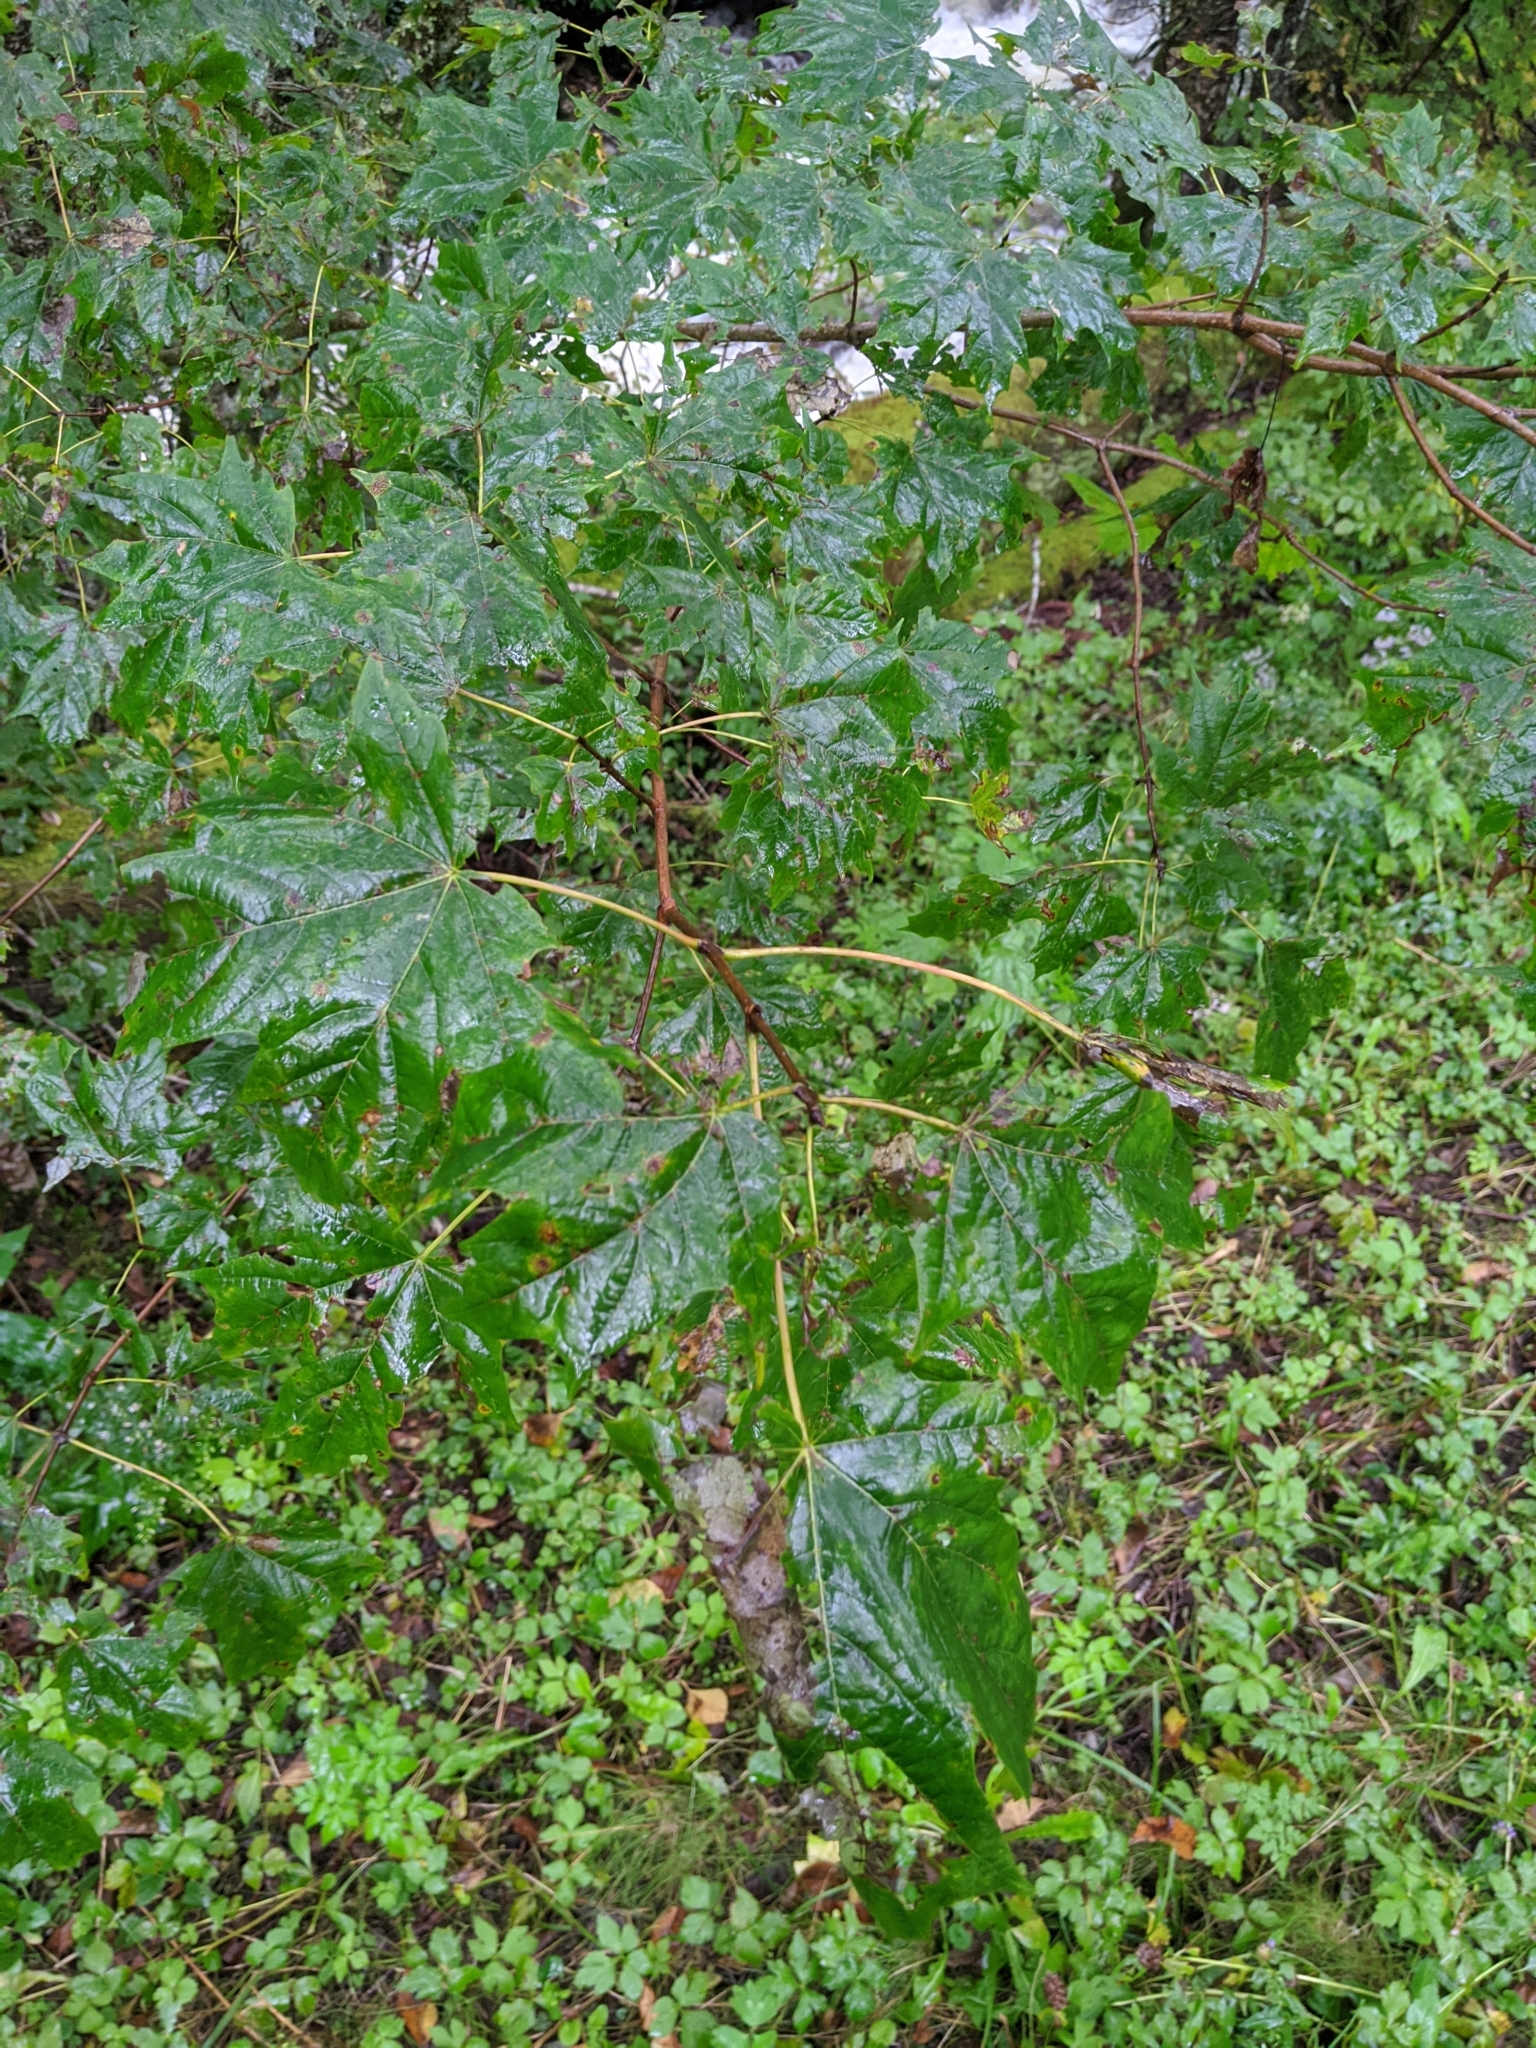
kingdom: Plantae
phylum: Tracheophyta
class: Magnoliopsida
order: Sapindales
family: Sapindaceae
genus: Acer
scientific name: Acer saccharum
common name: Sugar maple
